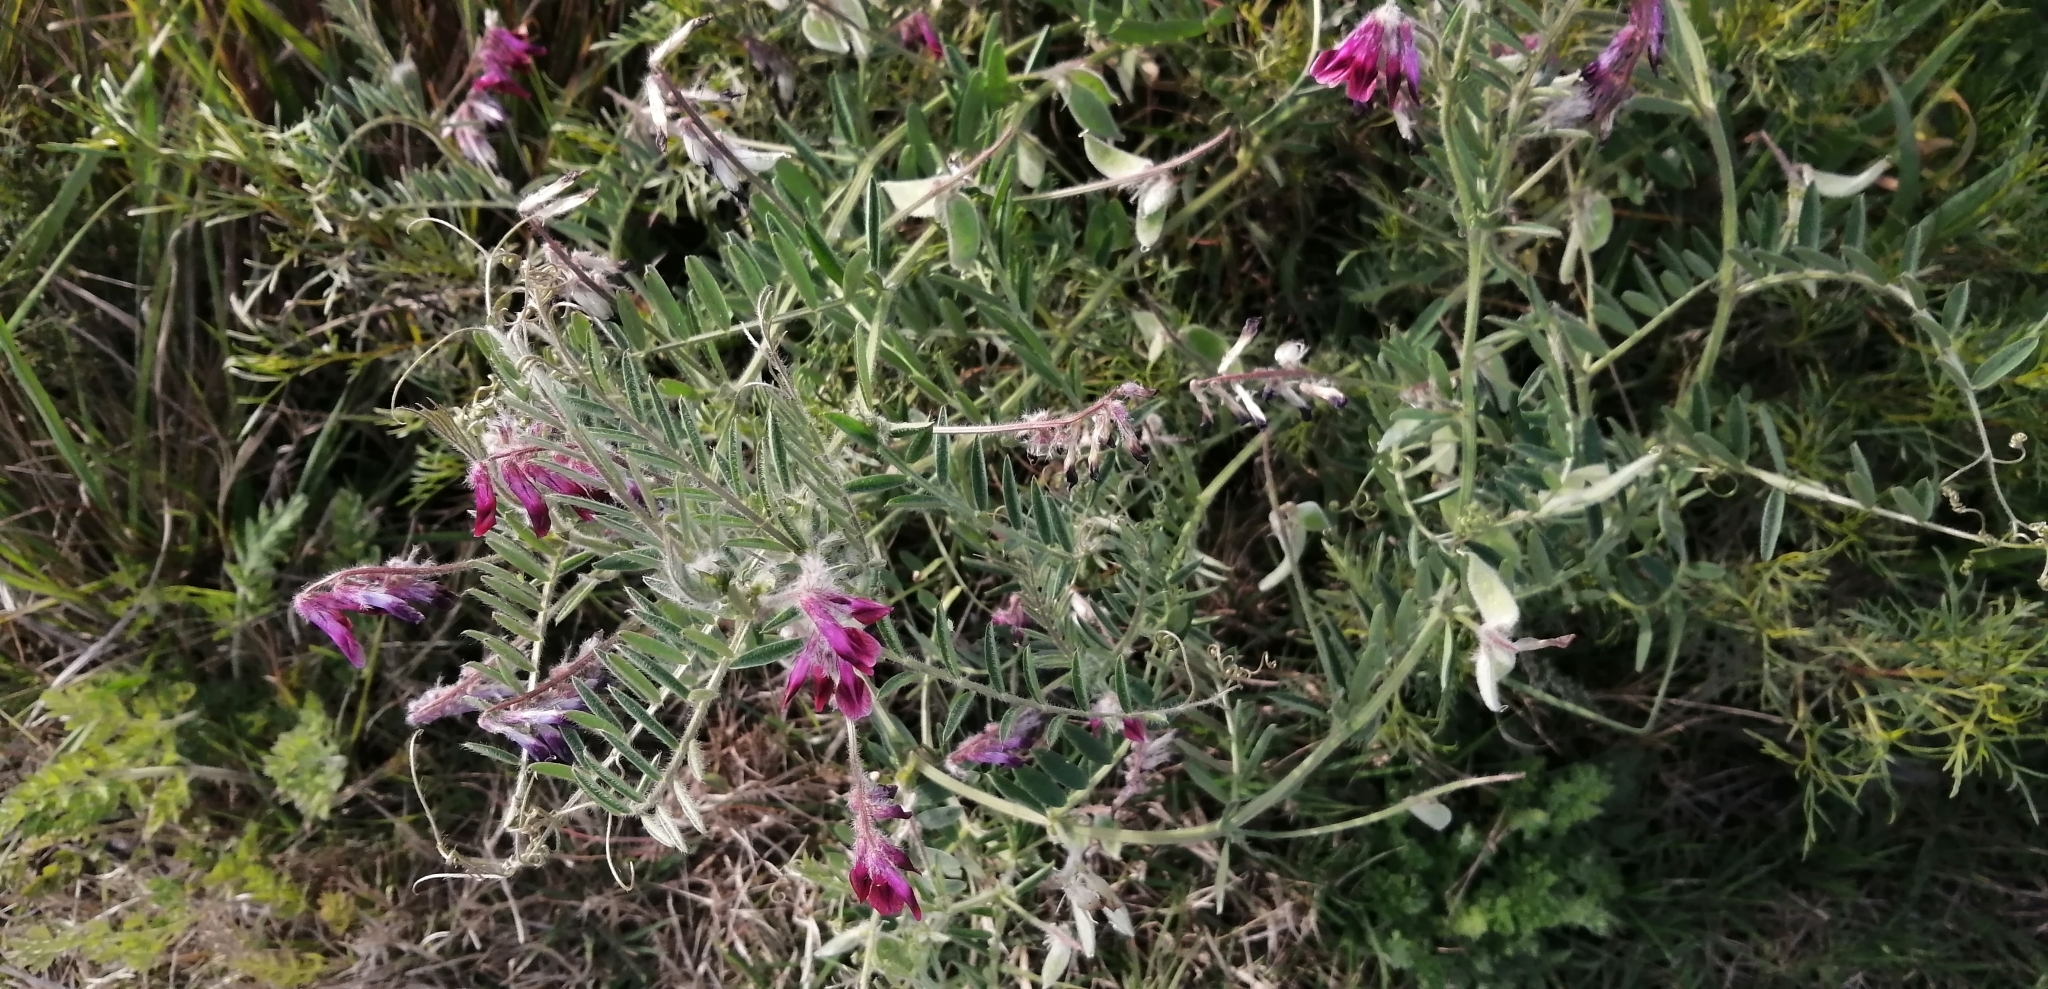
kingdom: Plantae
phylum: Tracheophyta
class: Magnoliopsida
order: Fabales
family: Fabaceae
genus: Vicia
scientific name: Vicia benghalensis
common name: Purple vetch
